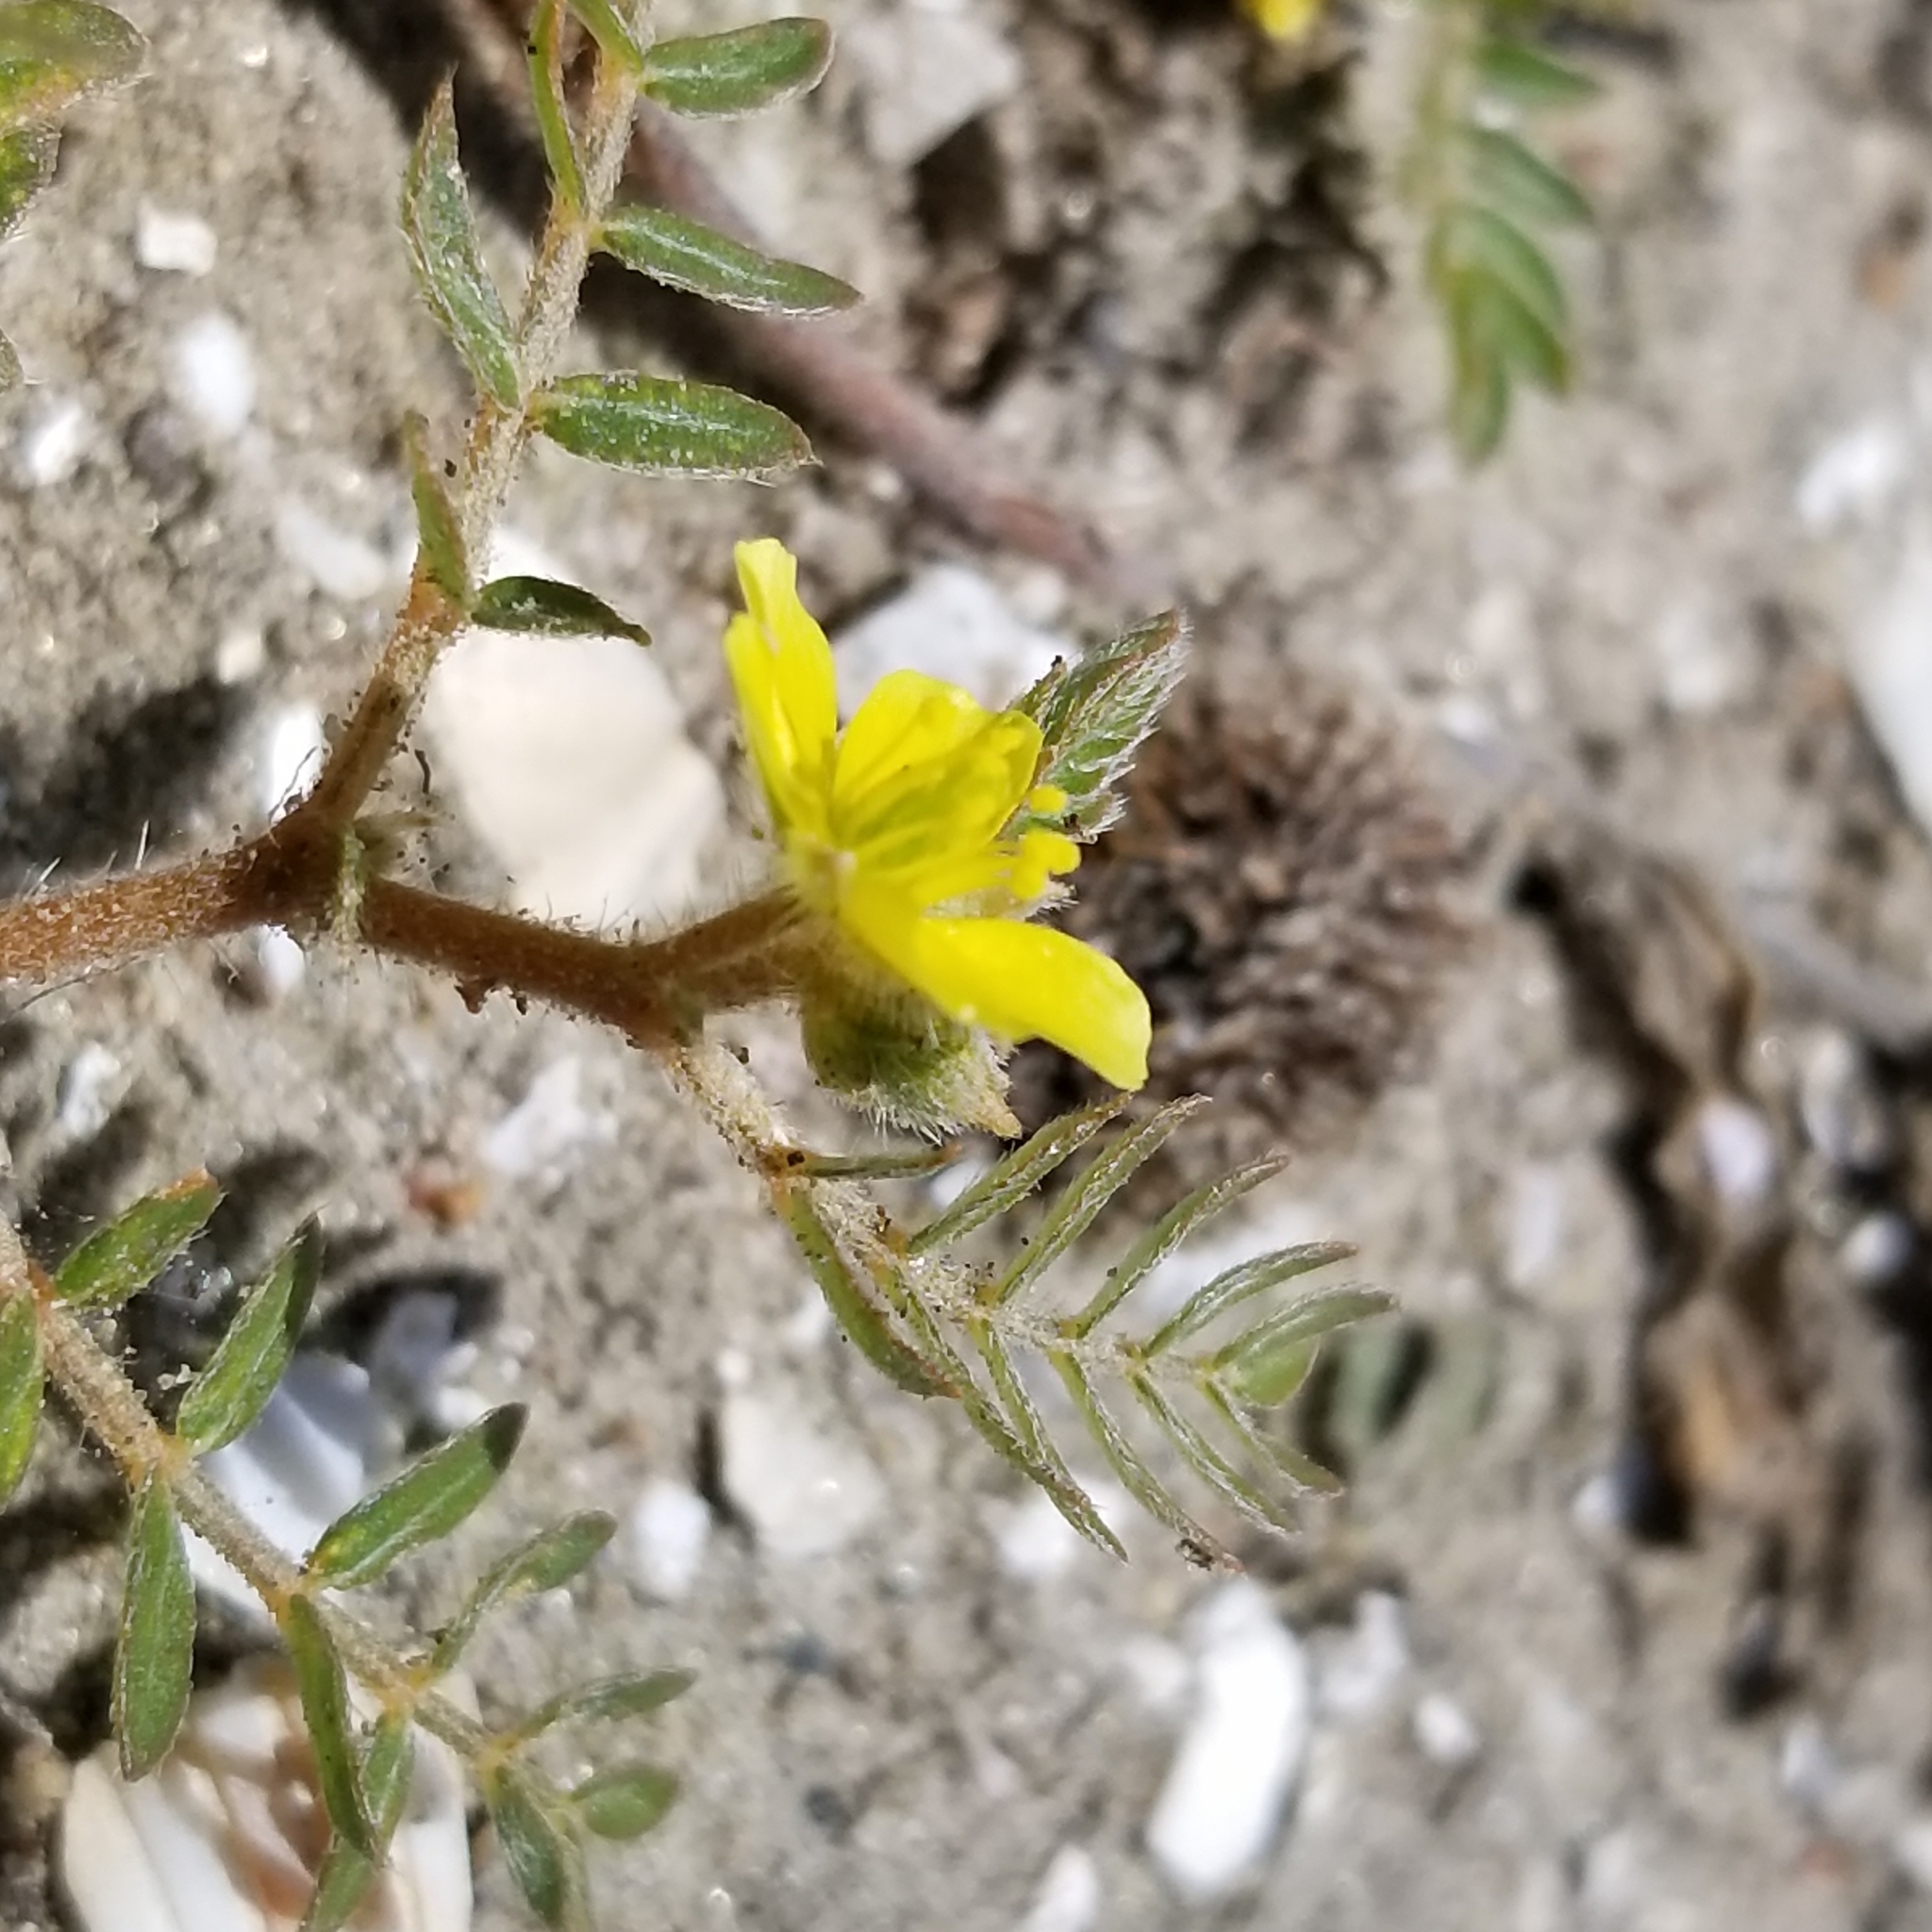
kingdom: Plantae
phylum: Tracheophyta
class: Magnoliopsida
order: Zygophyllales
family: Zygophyllaceae
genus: Tribulus
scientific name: Tribulus terrestris
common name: Puncturevine
